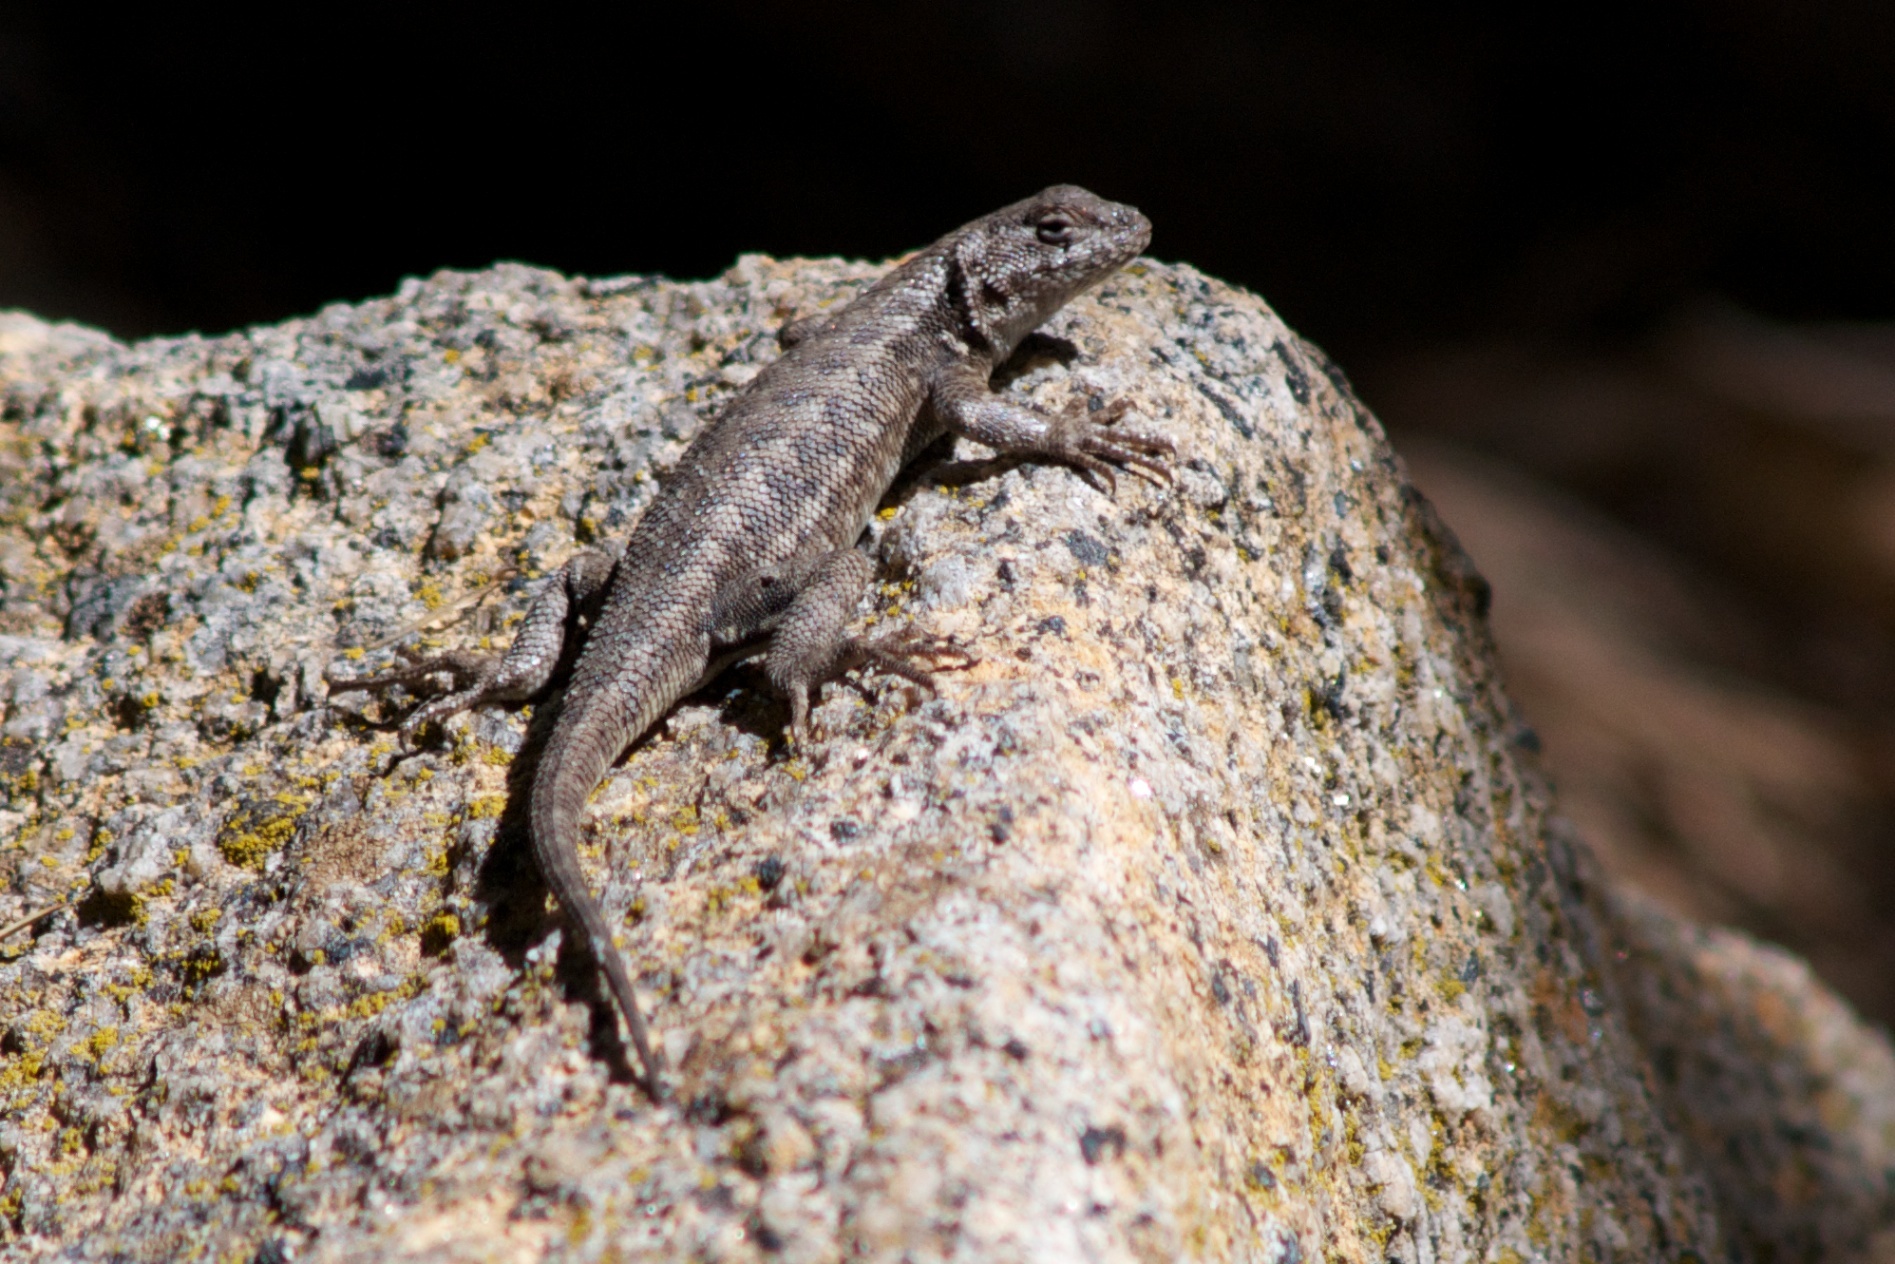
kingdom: Animalia
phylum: Chordata
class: Squamata
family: Phrynosomatidae
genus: Sceloporus
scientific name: Sceloporus graciosus
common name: Sagebrush lizard
